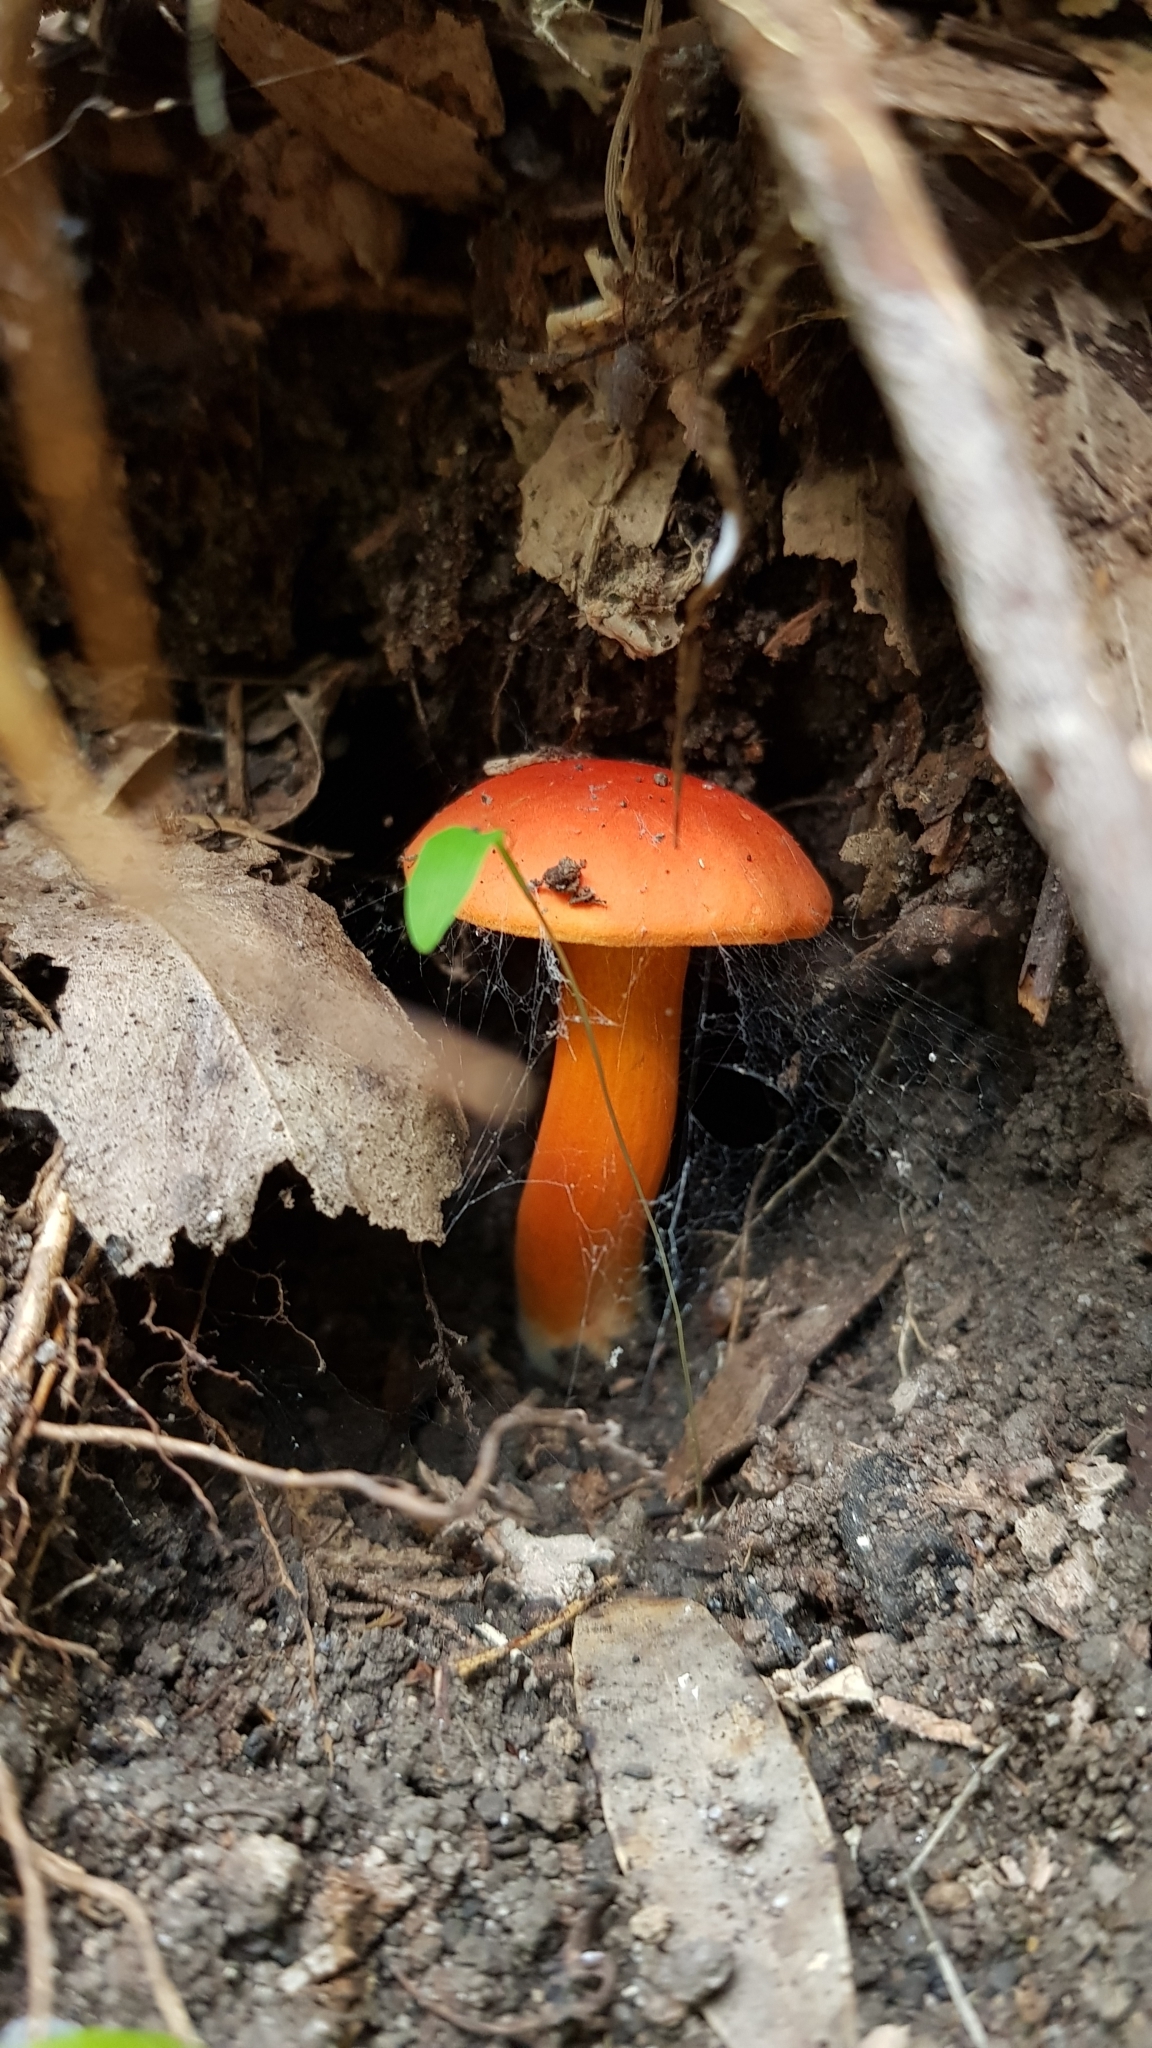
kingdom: Fungi
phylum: Basidiomycota
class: Agaricomycetes
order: Boletales
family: Boletaceae
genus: Tylopilus
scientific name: Tylopilus balloui
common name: Burnt-orange bolete
